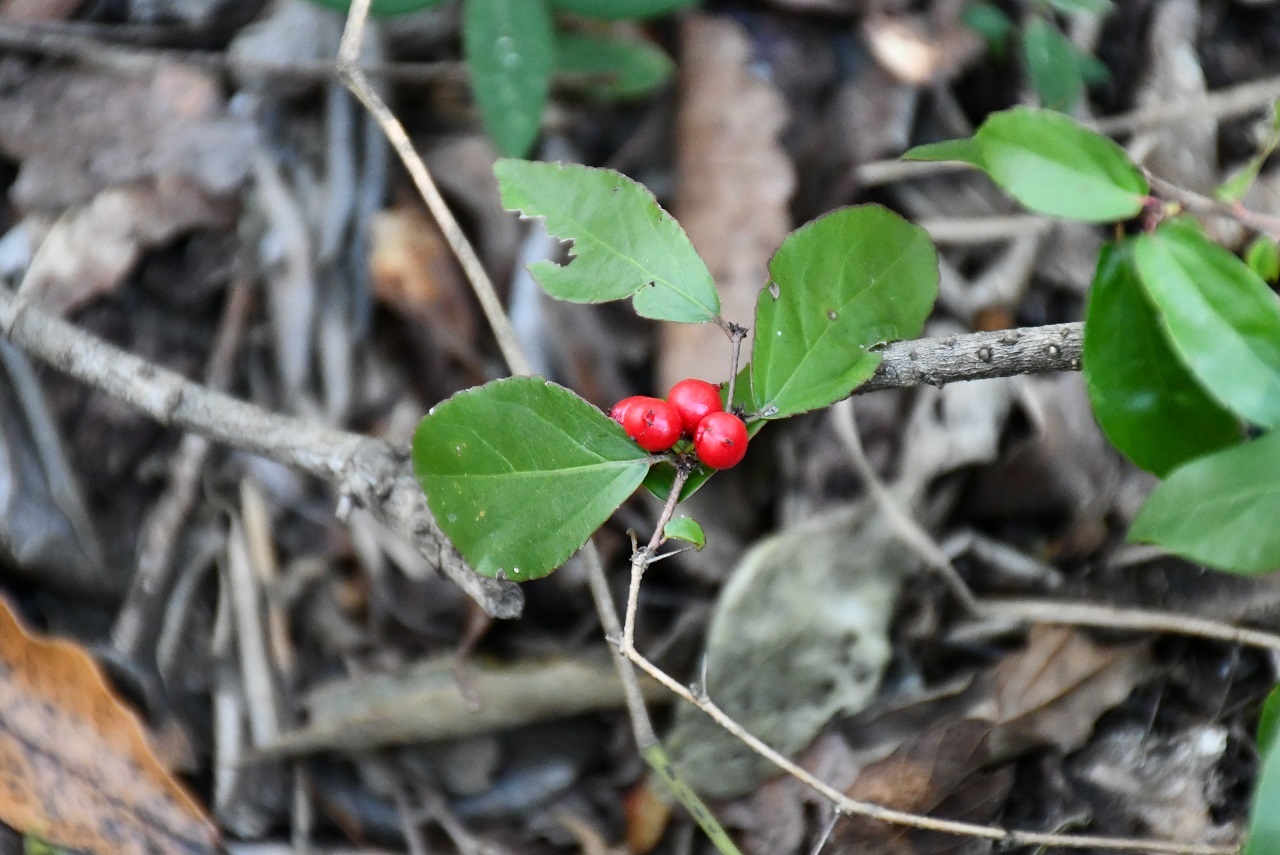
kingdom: Plantae
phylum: Tracheophyta
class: Magnoliopsida
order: Malpighiales
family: Salicaceae
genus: Xylosma
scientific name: Xylosma chiapensis
